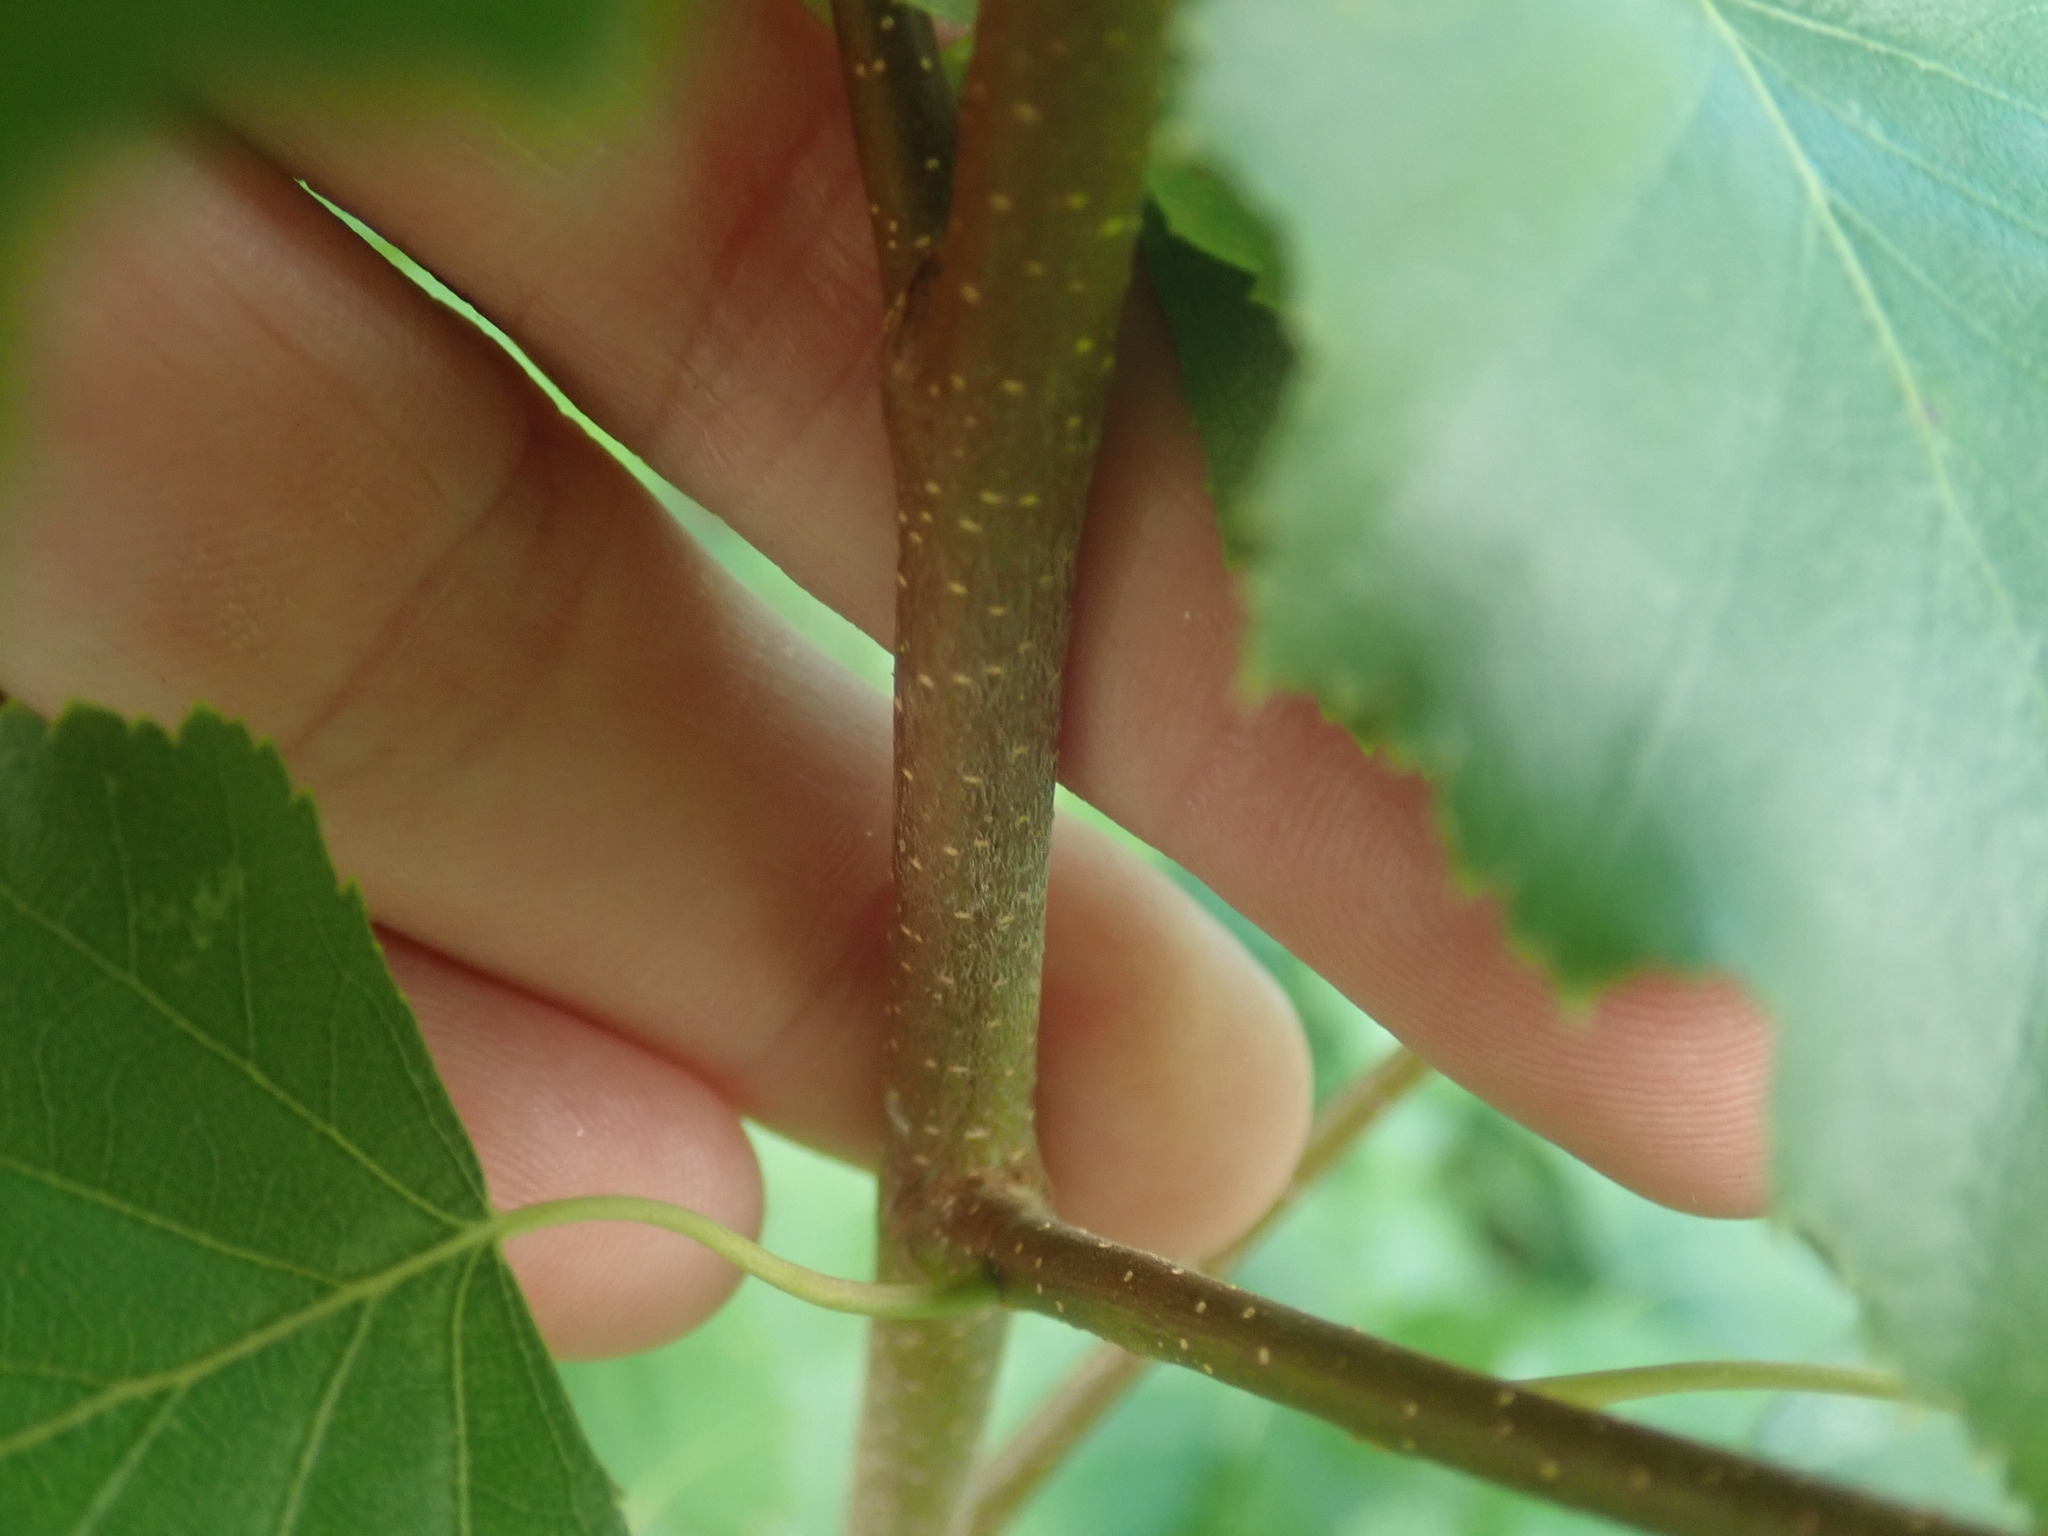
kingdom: Plantae
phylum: Tracheophyta
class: Magnoliopsida
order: Fagales
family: Betulaceae
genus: Betula
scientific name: Betula populifolia
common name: Fire birch
